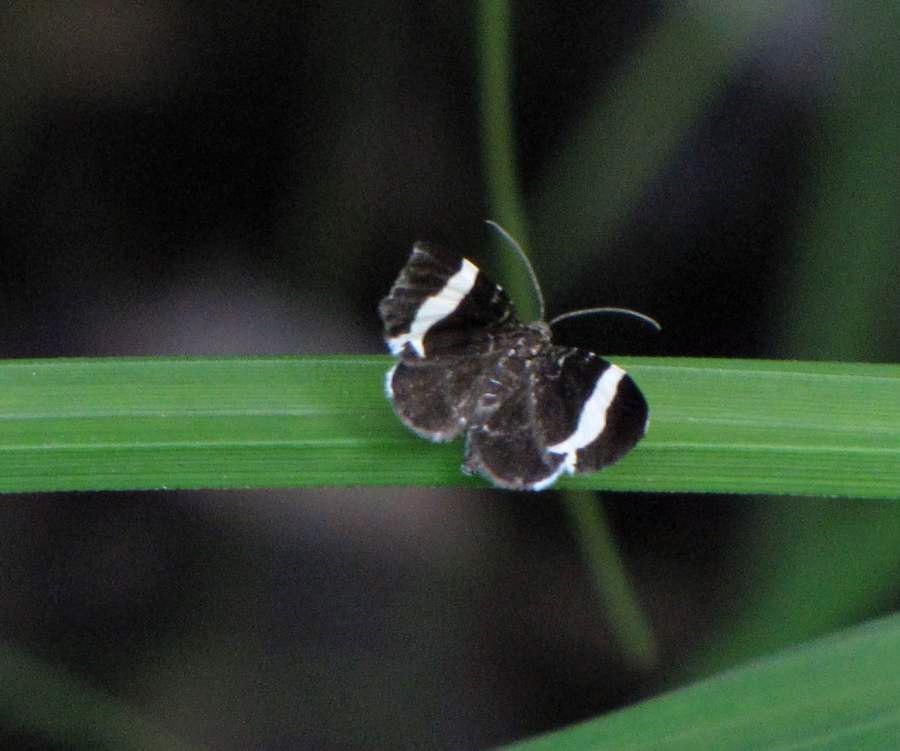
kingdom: Animalia
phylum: Arthropoda
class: Insecta
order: Lepidoptera
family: Geometridae
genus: Trichodezia
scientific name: Trichodezia albovittata
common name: White striped black
